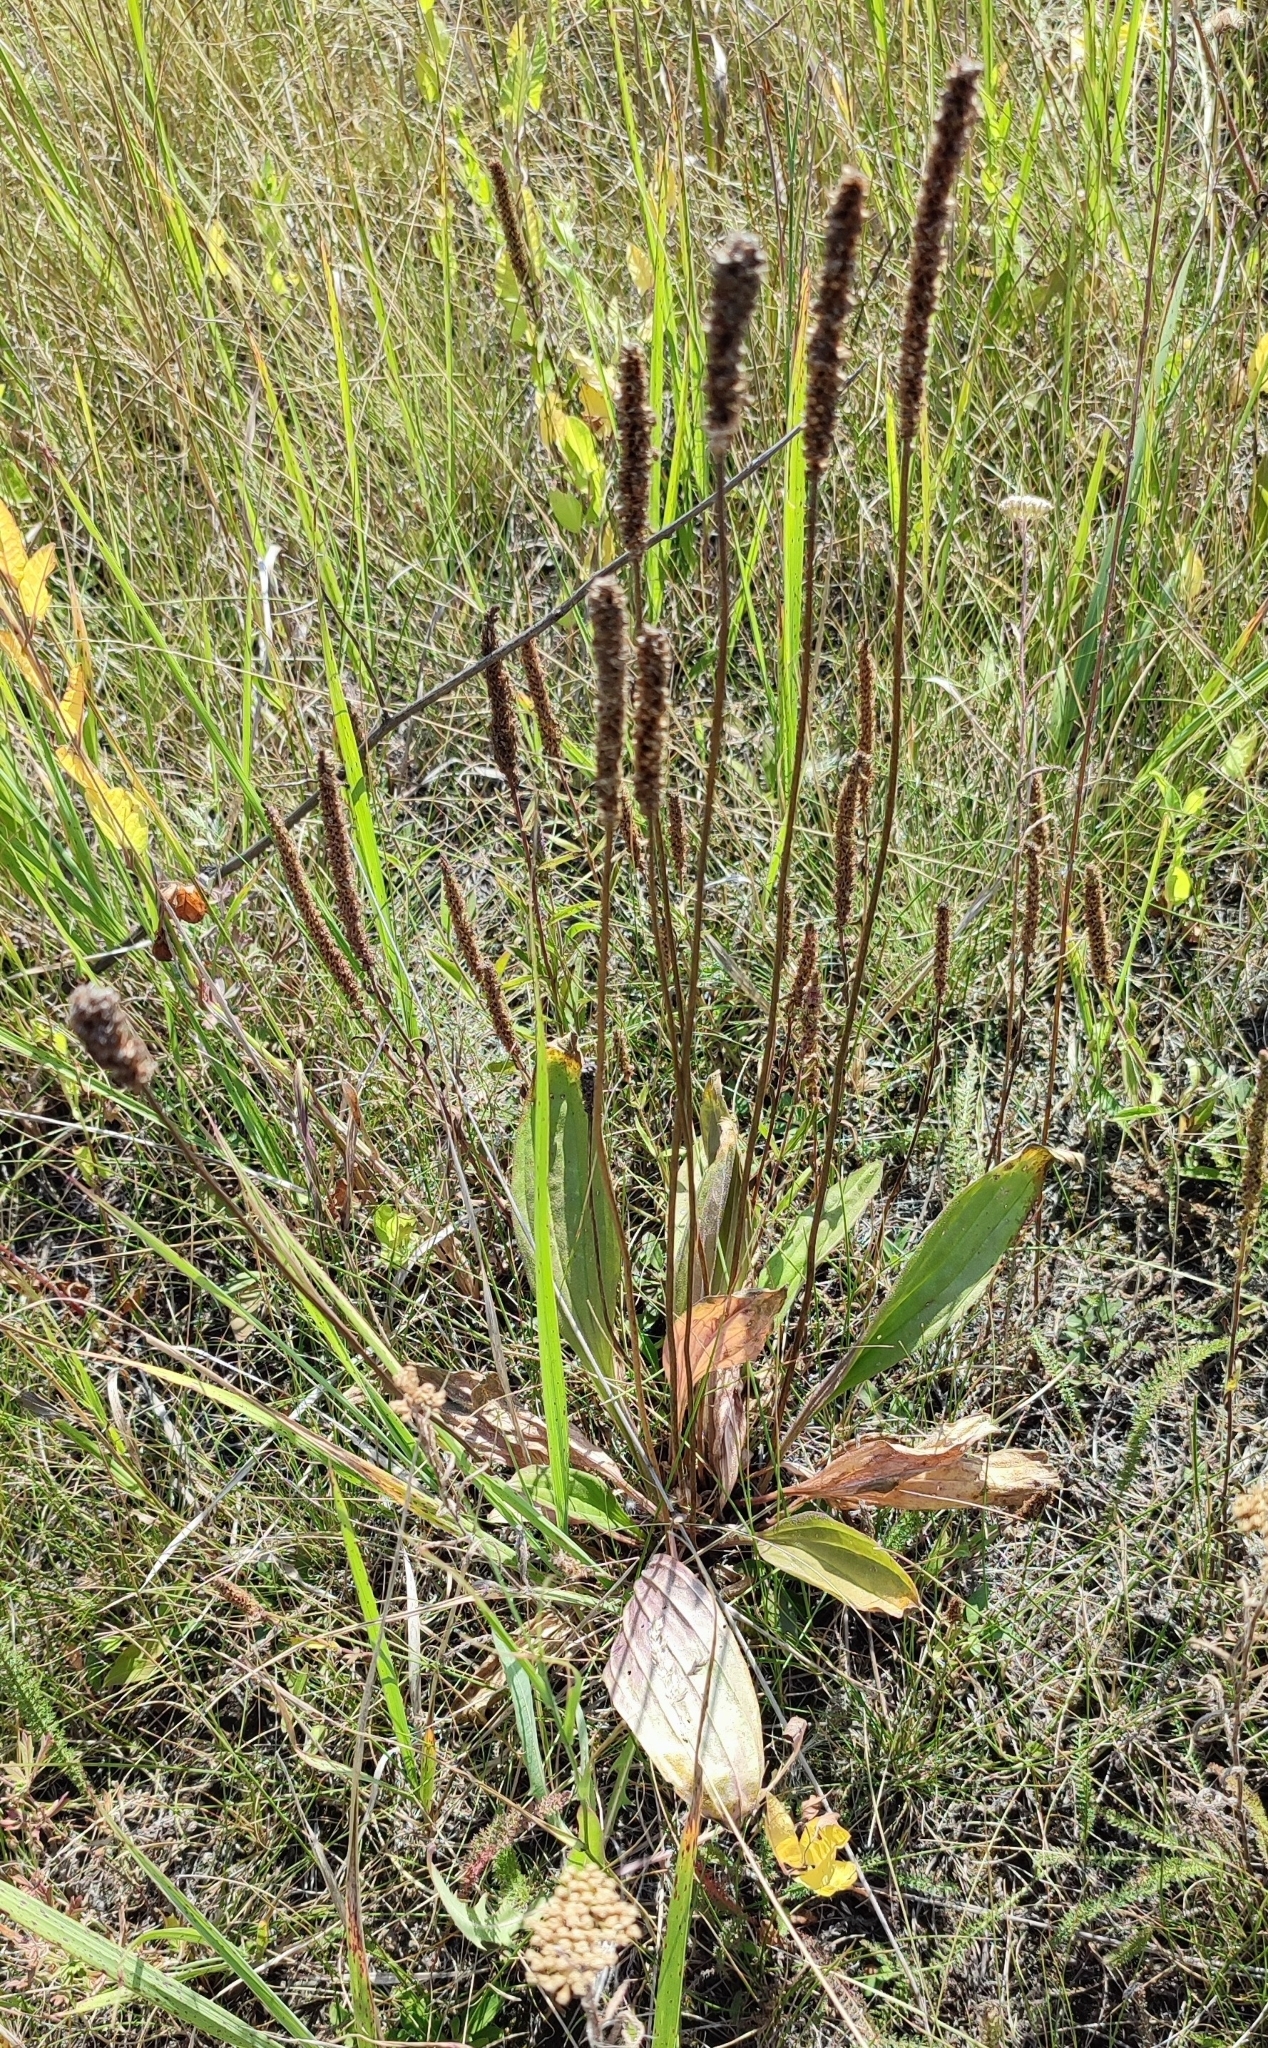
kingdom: Plantae
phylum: Tracheophyta
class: Magnoliopsida
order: Lamiales
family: Plantaginaceae
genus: Plantago
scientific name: Plantago urvillei
